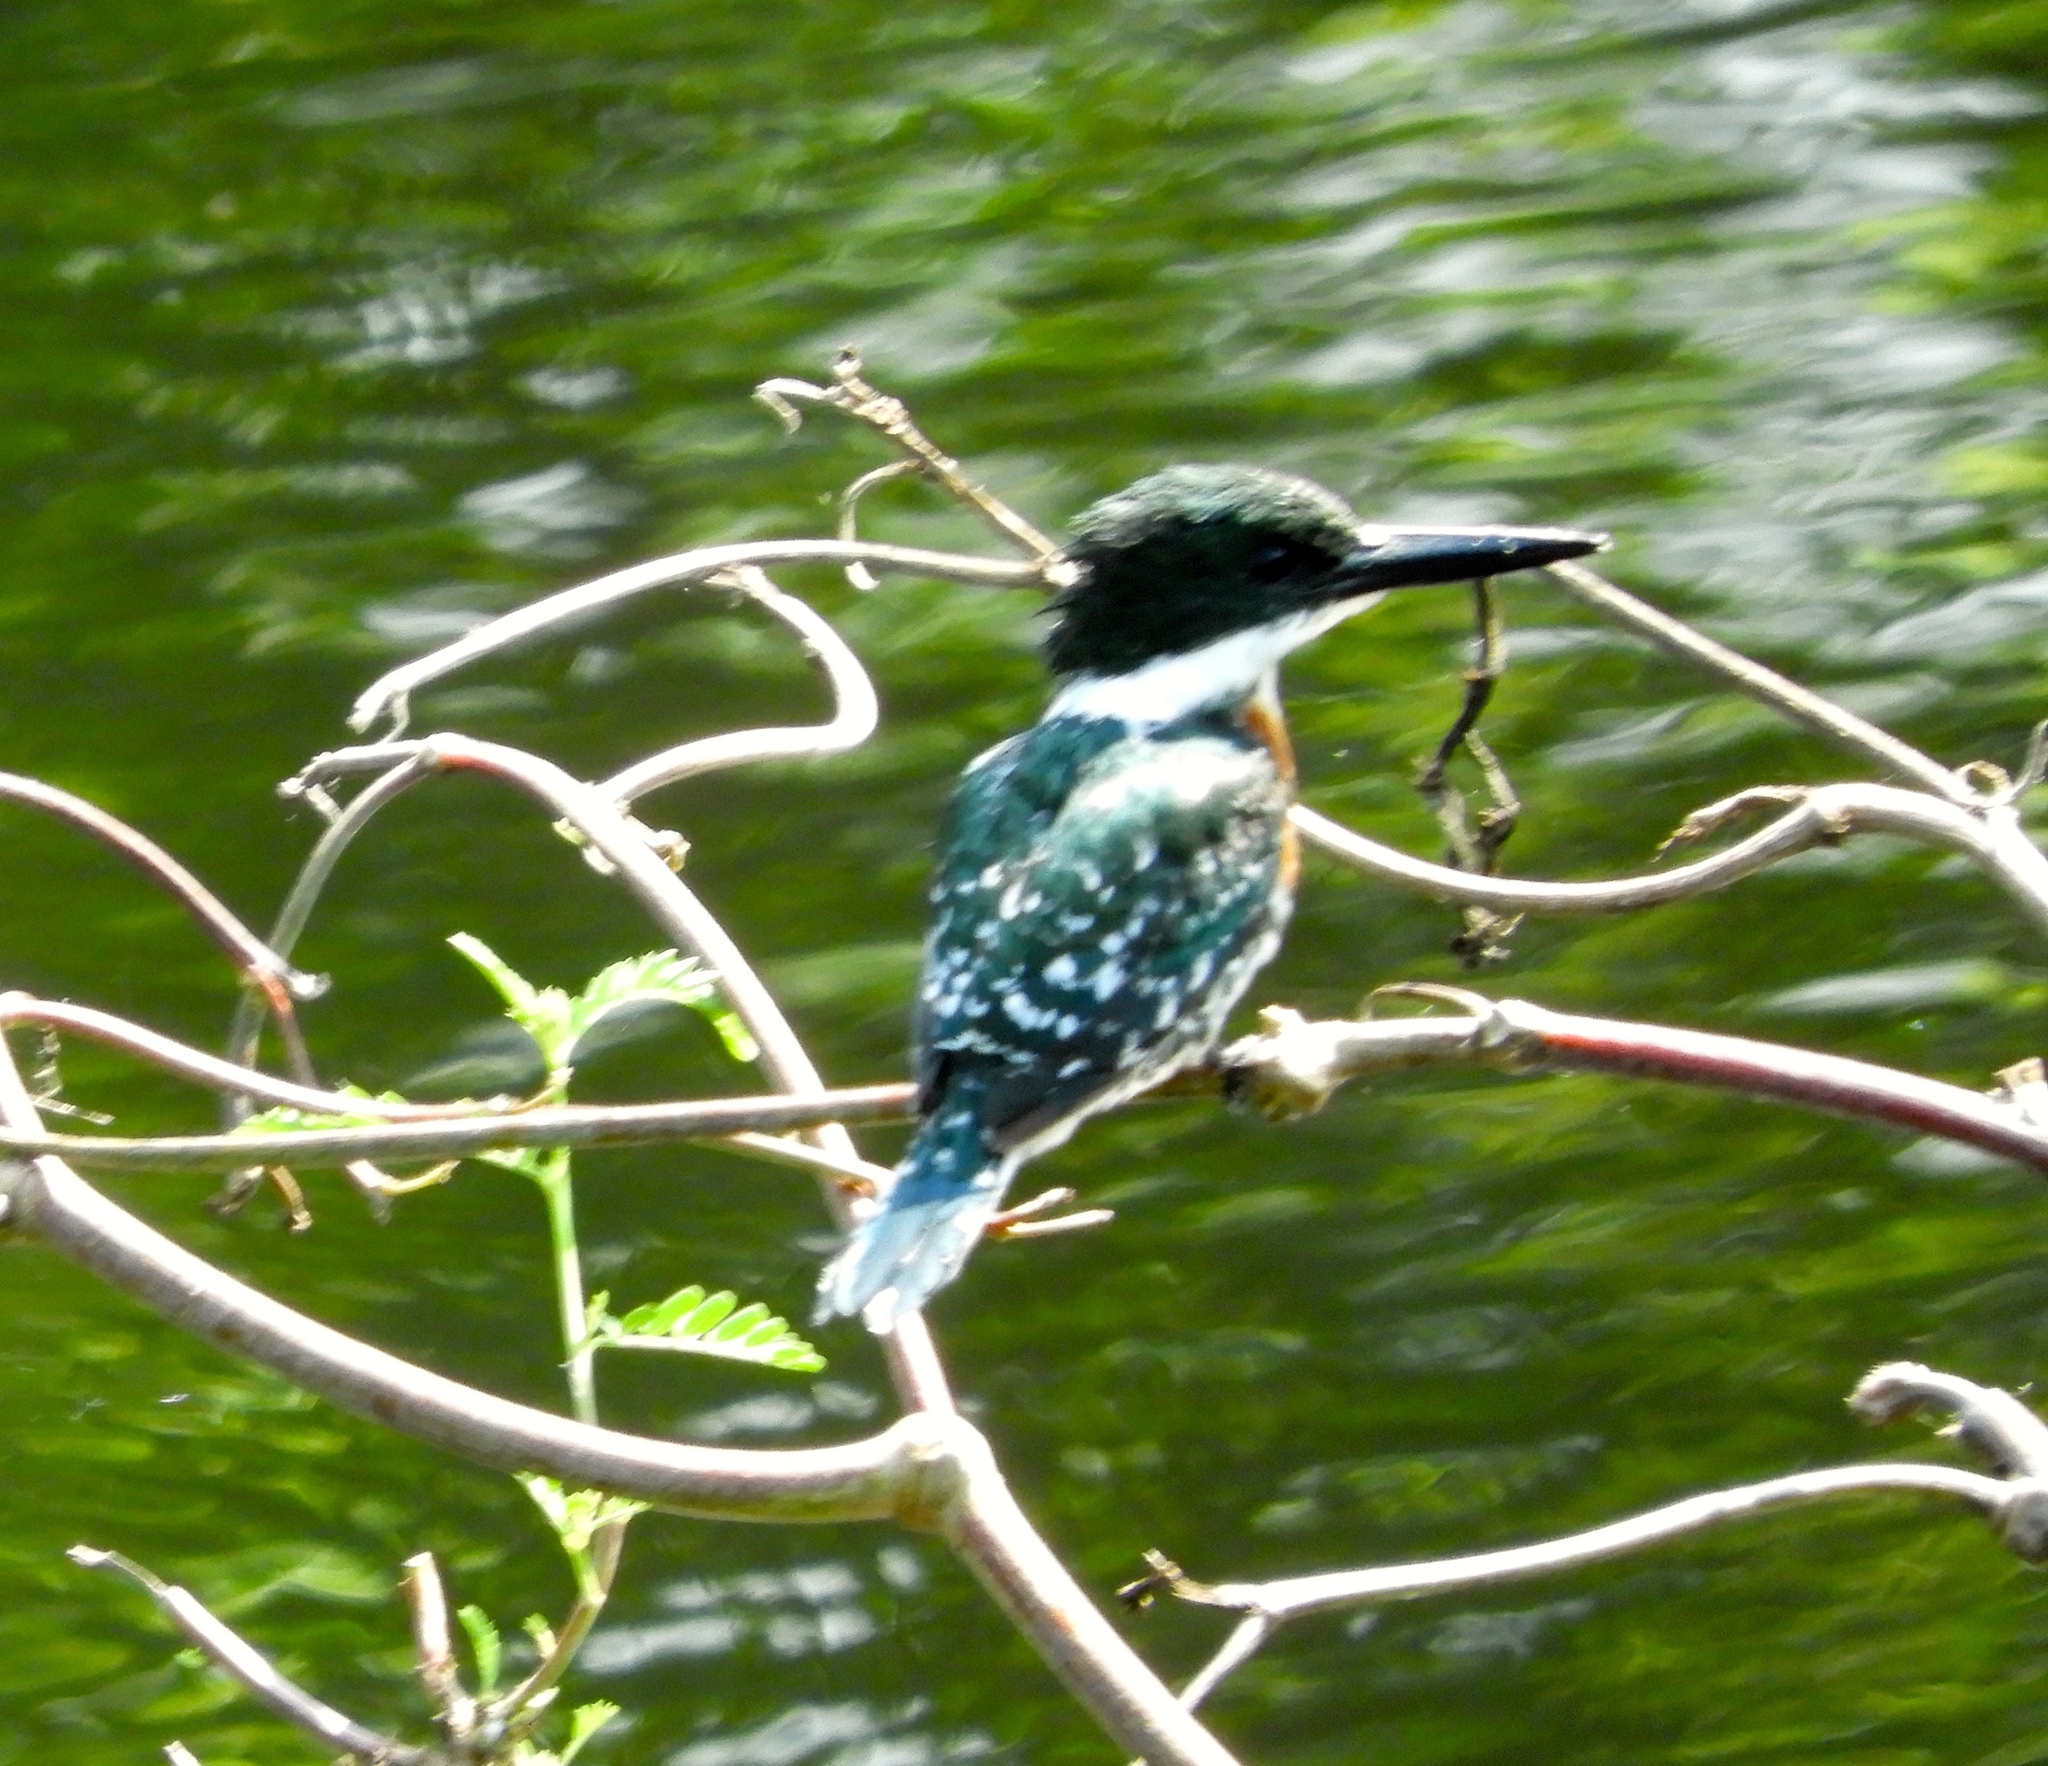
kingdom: Animalia
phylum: Chordata
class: Aves
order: Coraciiformes
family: Alcedinidae
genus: Chloroceryle
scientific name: Chloroceryle americana
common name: Green kingfisher
